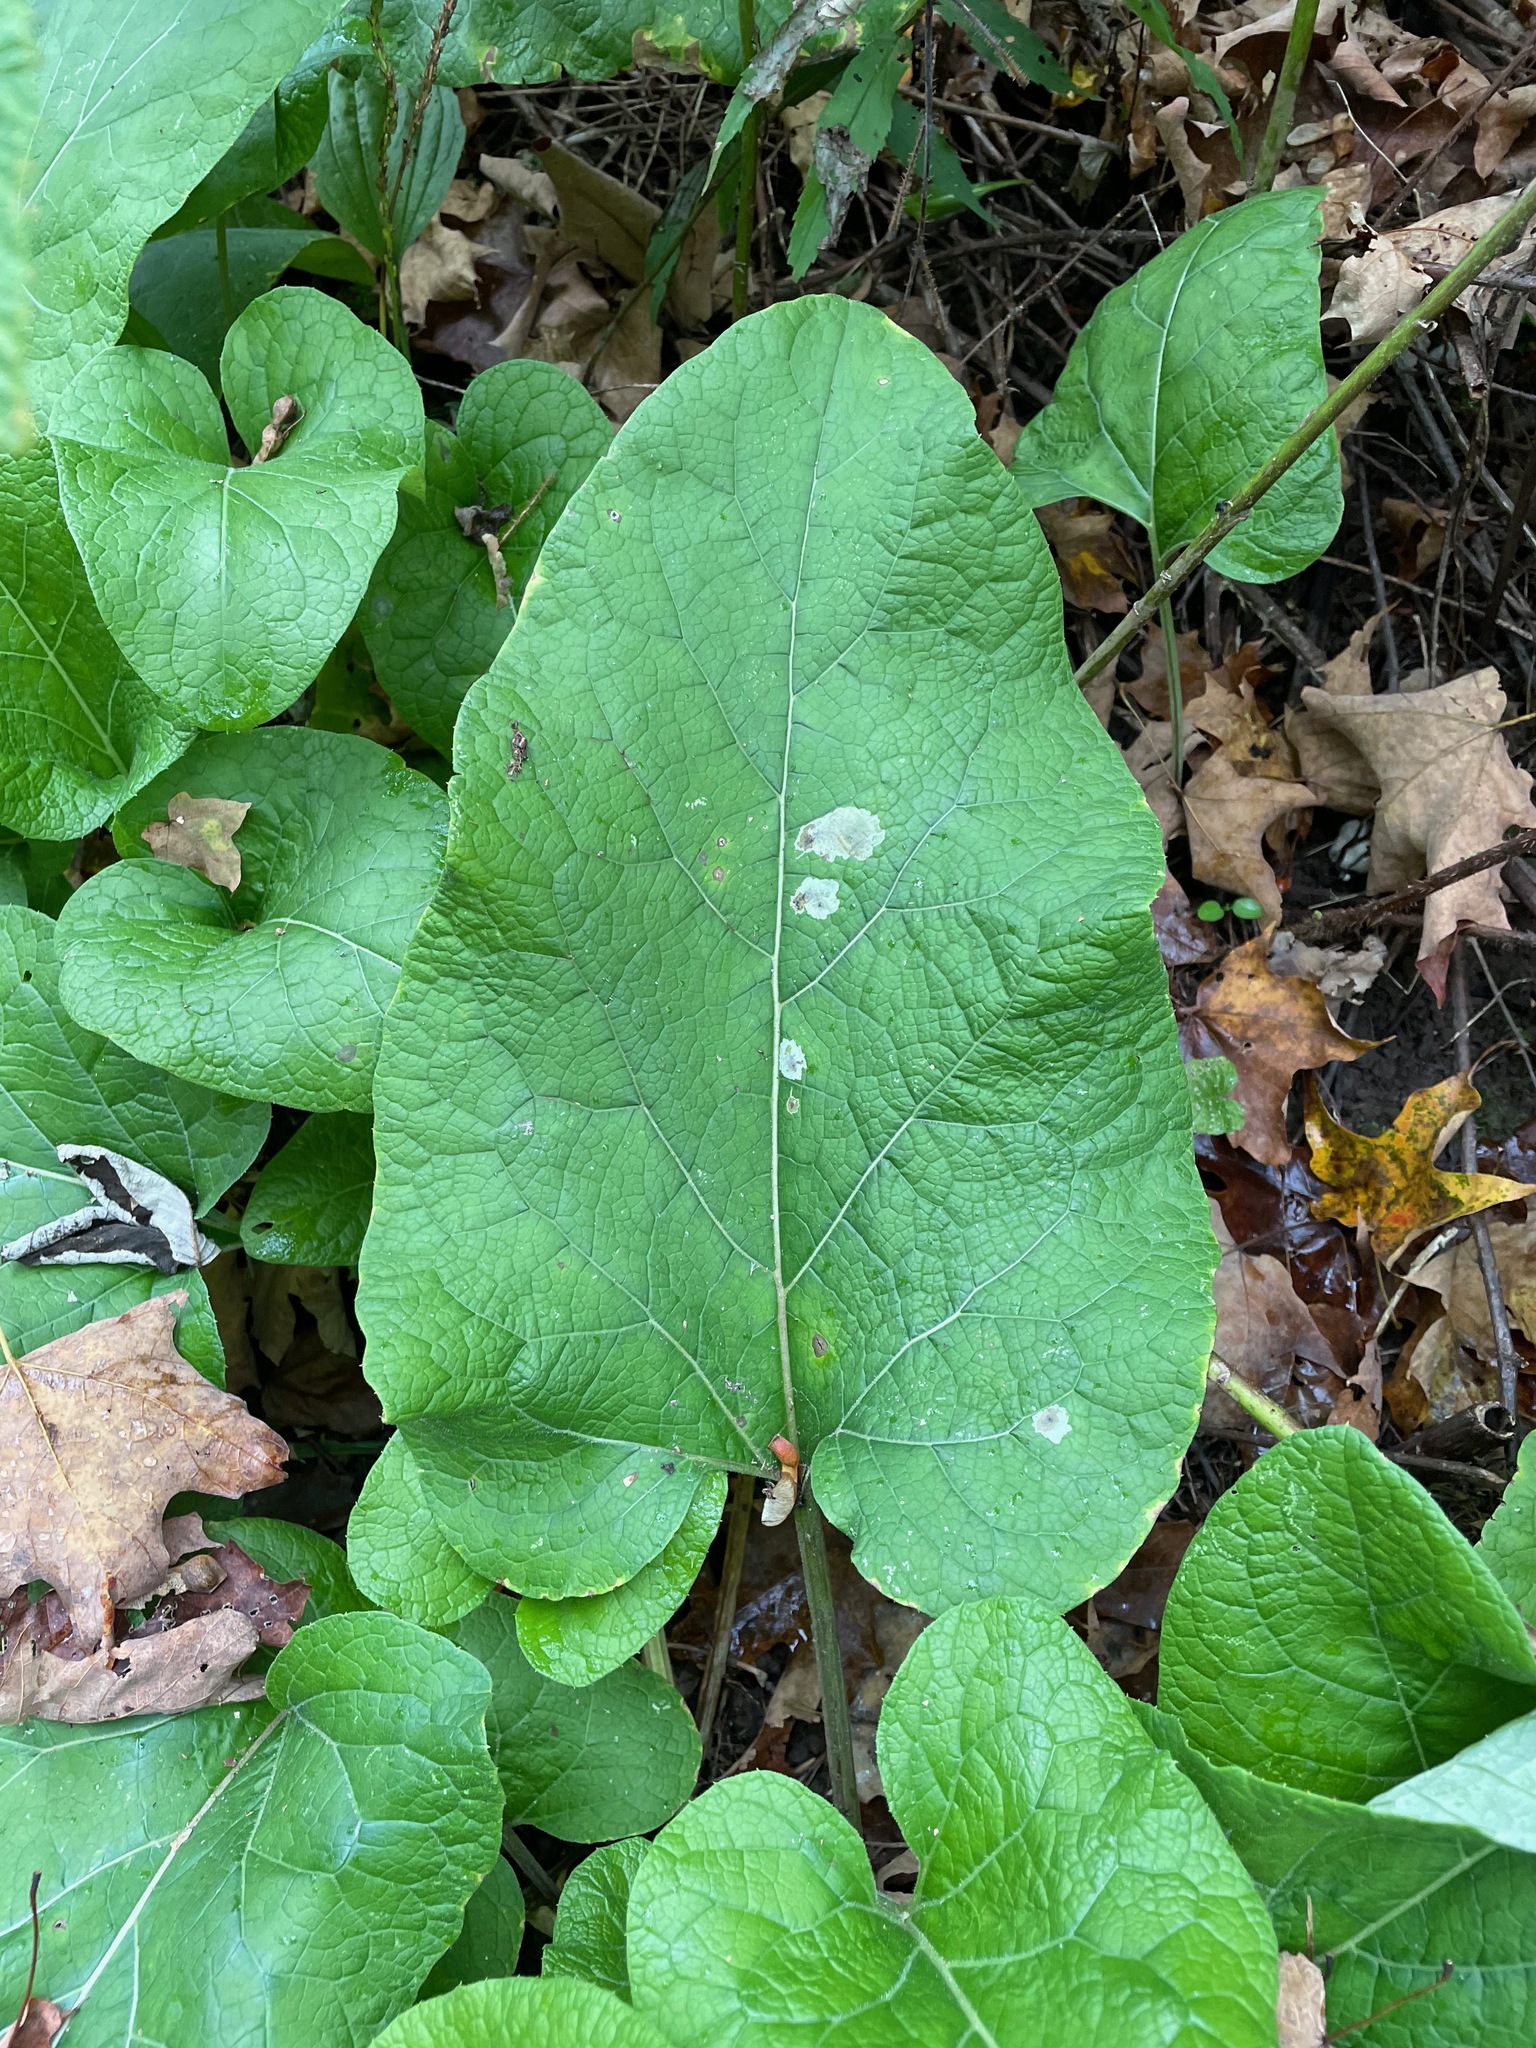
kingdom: Plantae
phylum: Tracheophyta
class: Magnoliopsida
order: Asterales
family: Asteraceae
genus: Arctium
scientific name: Arctium
